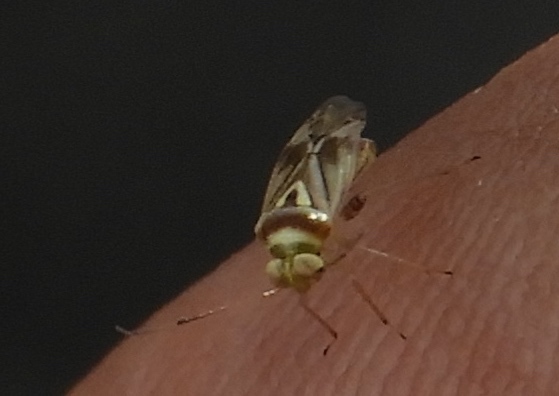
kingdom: Animalia
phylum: Arthropoda
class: Insecta
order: Hemiptera
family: Miridae
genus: Dagbertus
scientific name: Dagbertus
